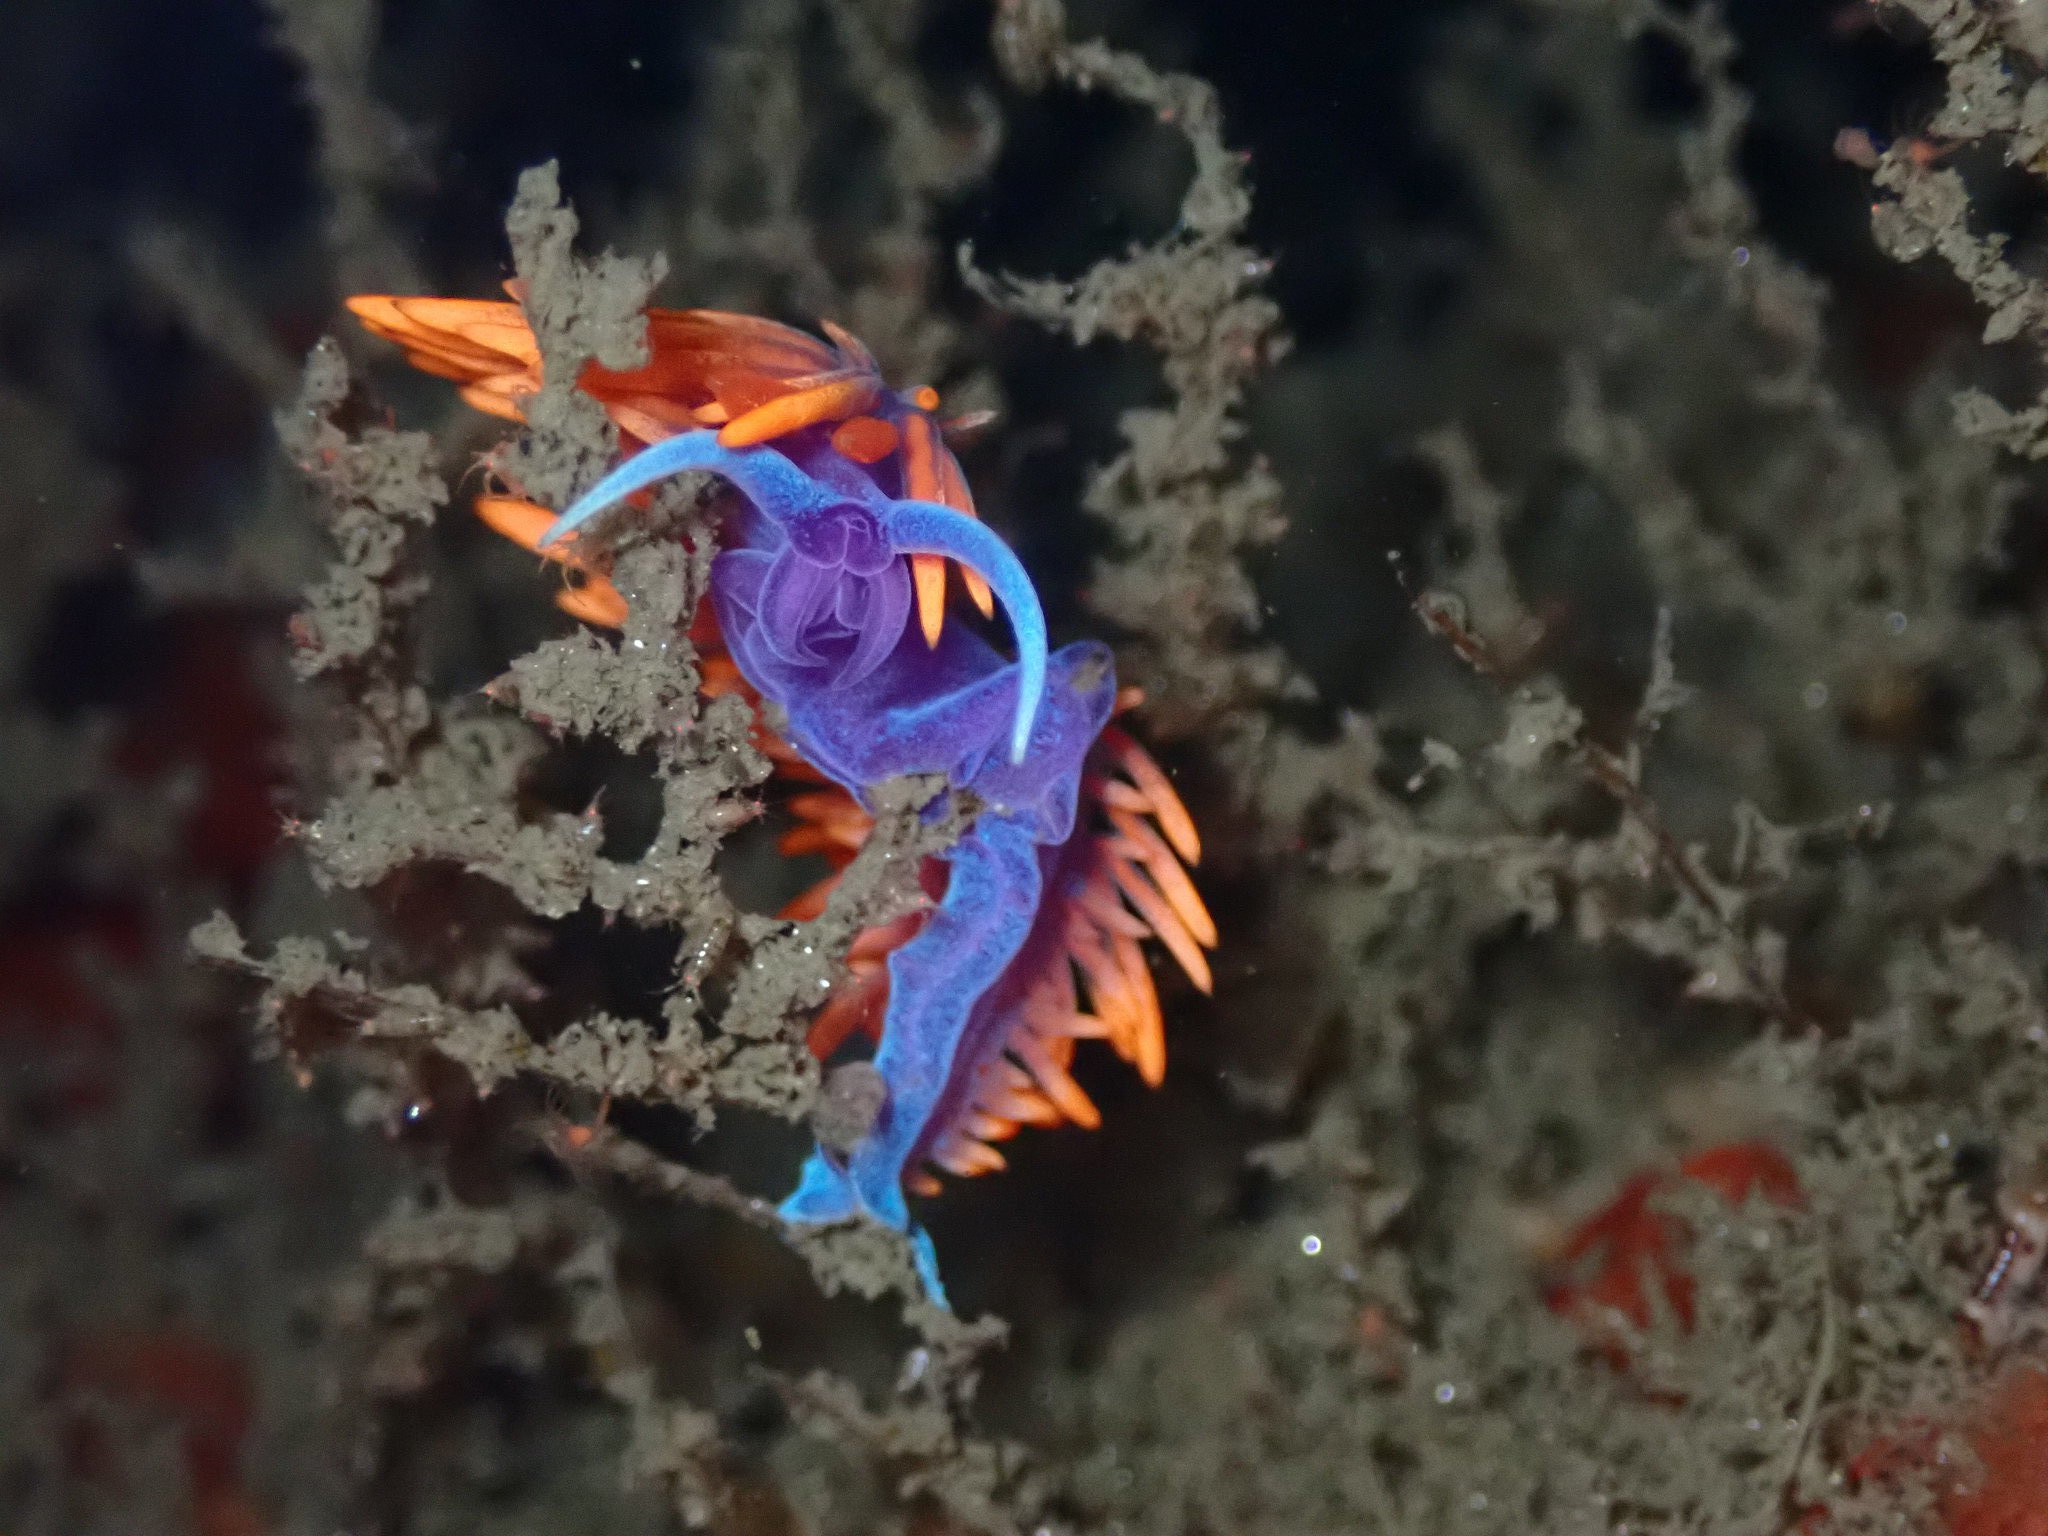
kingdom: Animalia
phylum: Mollusca
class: Gastropoda
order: Nudibranchia
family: Flabellinopsidae
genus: Flabellinopsis
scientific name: Flabellinopsis iodinea
